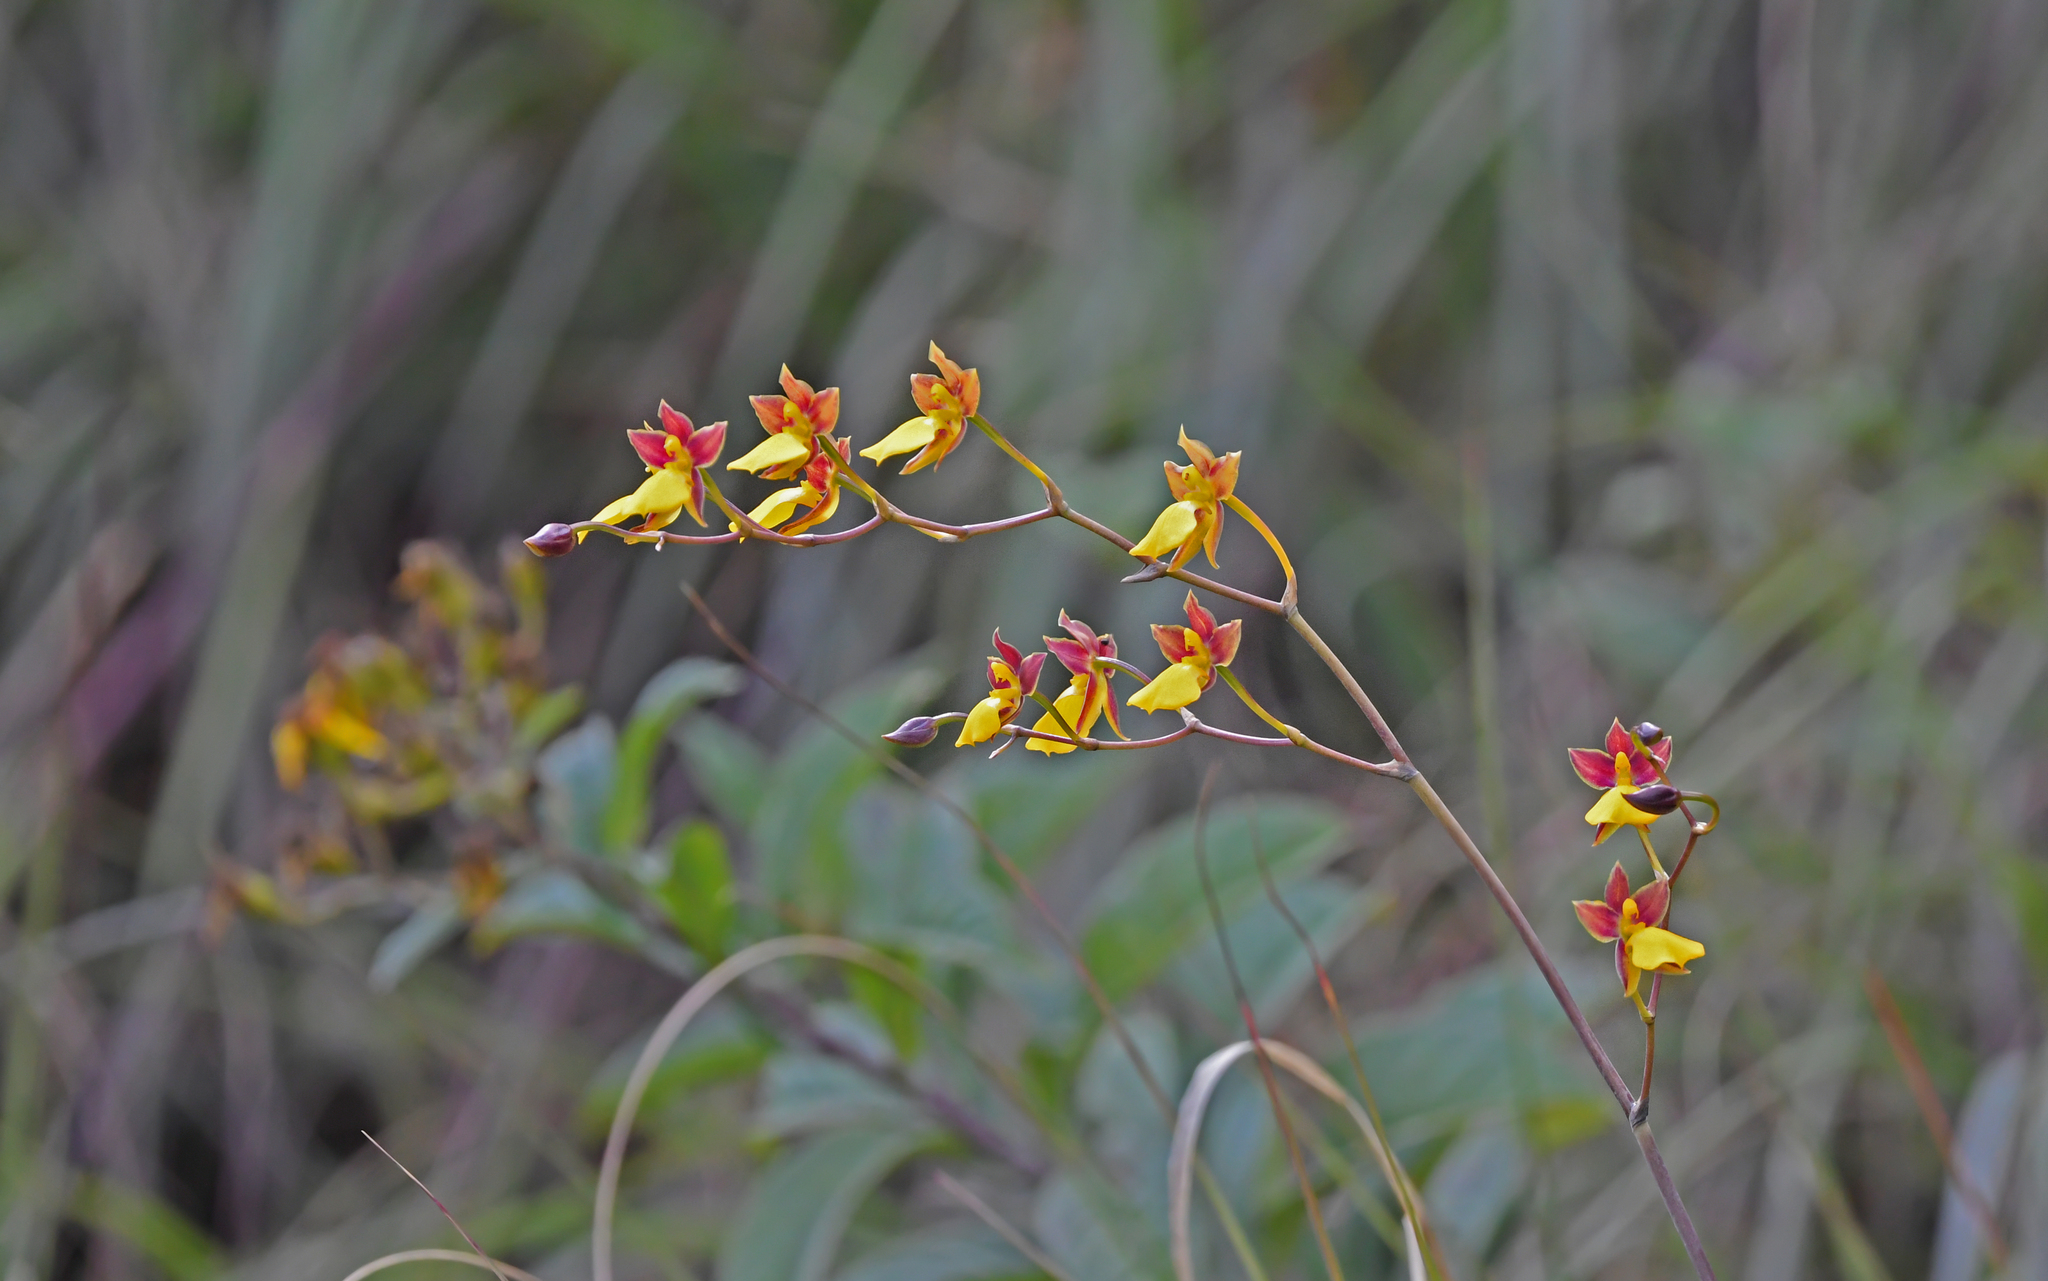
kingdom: Plantae
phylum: Tracheophyta
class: Liliopsida
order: Asparagales
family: Orchidaceae
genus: Cyrtochilum
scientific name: Cyrtochilum aureum
